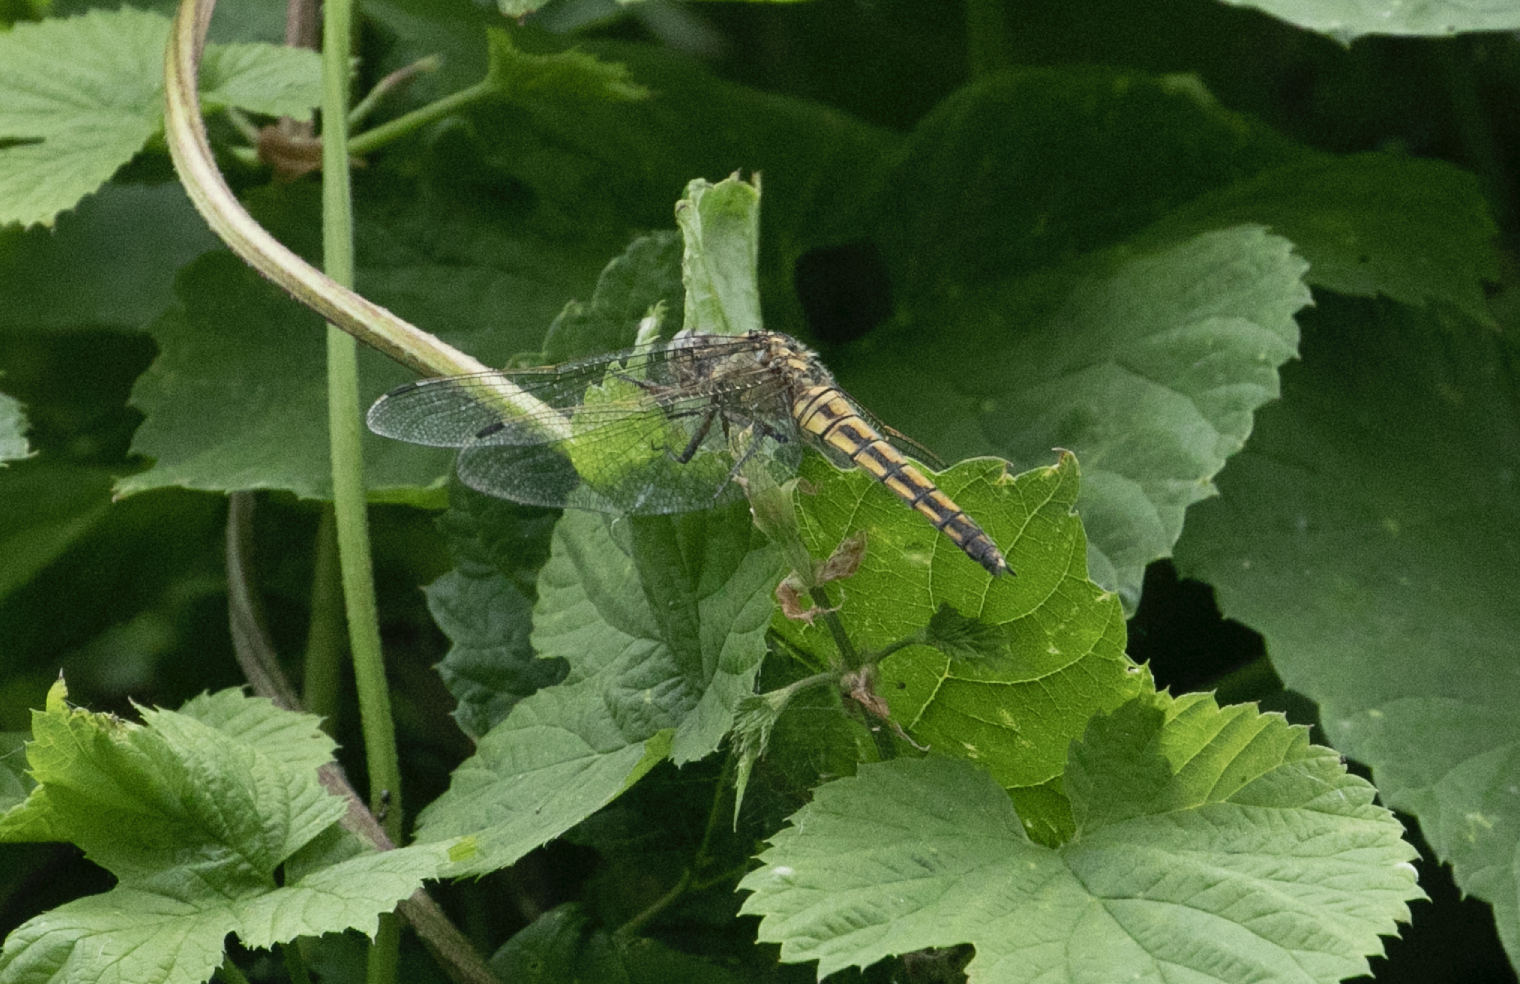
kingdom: Animalia
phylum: Arthropoda
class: Insecta
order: Odonata
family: Libellulidae
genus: Orthetrum
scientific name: Orthetrum cancellatum
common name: Black-tailed skimmer
